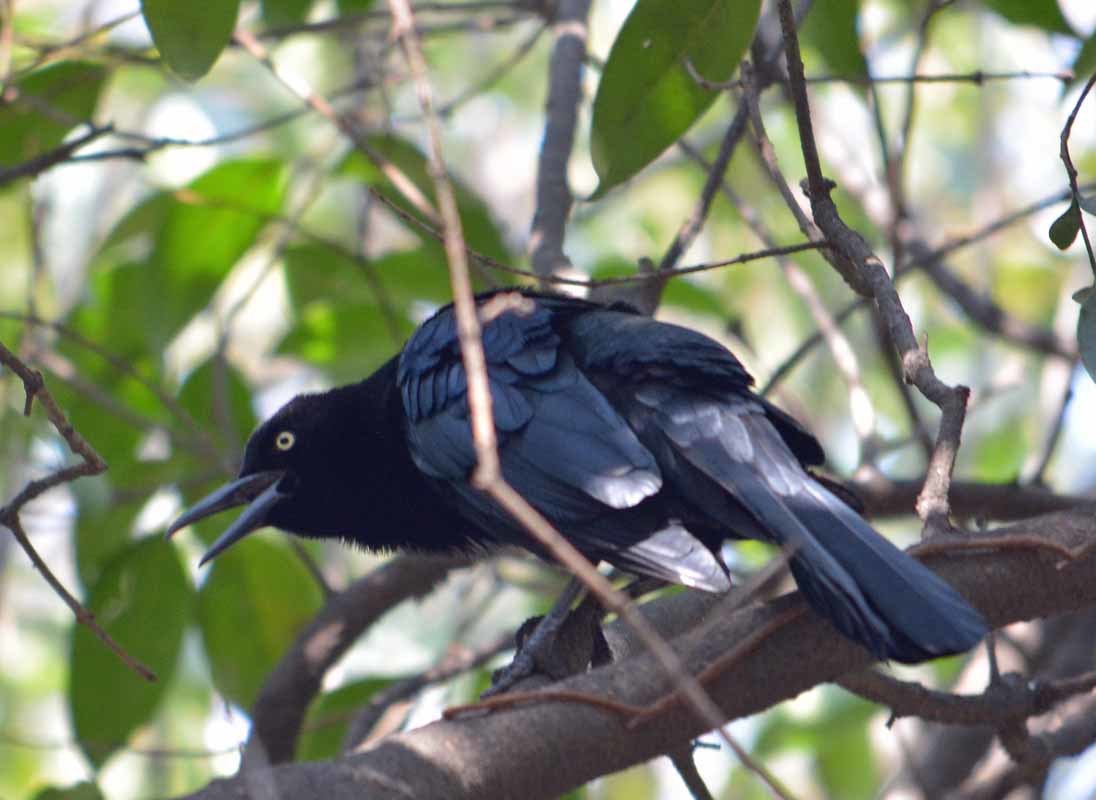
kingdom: Animalia
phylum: Chordata
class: Aves
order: Passeriformes
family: Icteridae
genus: Quiscalus
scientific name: Quiscalus mexicanus
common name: Great-tailed grackle
